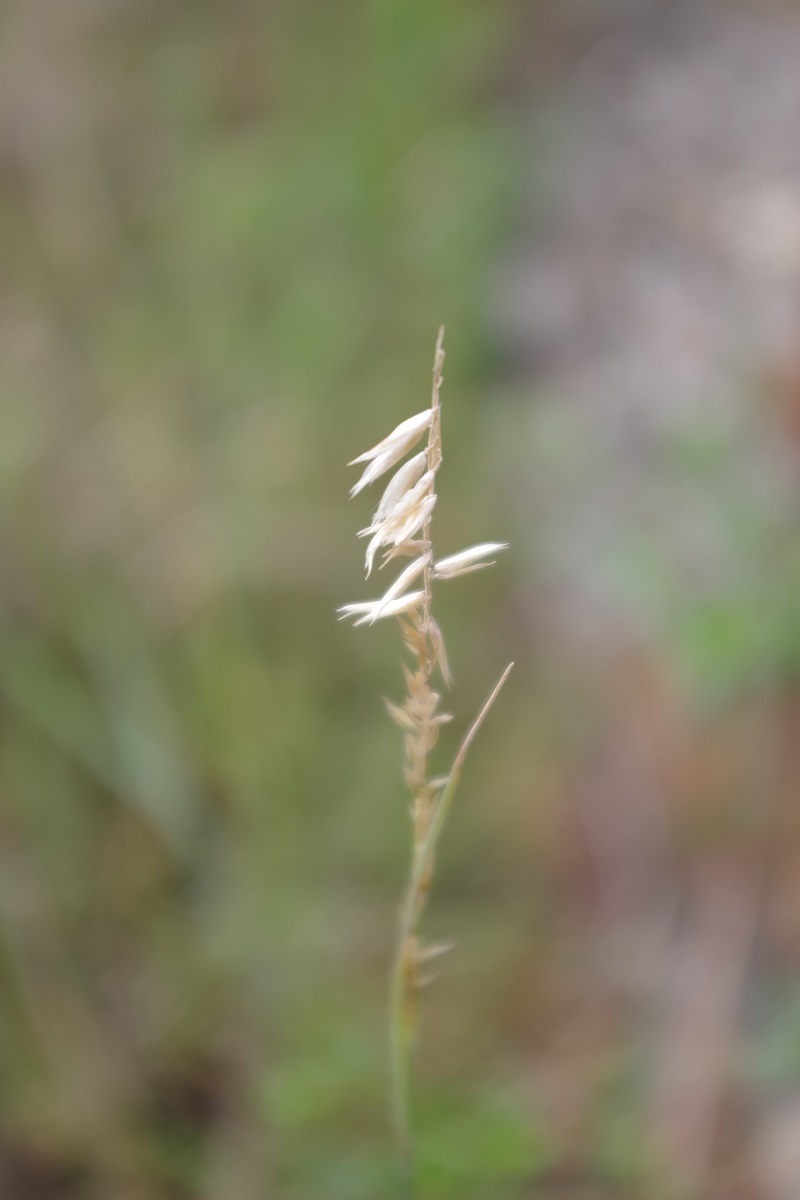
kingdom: Plantae
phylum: Tracheophyta
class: Liliopsida
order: Poales
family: Poaceae
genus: Melica
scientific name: Melica ciliata
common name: Hairy melicgrass
